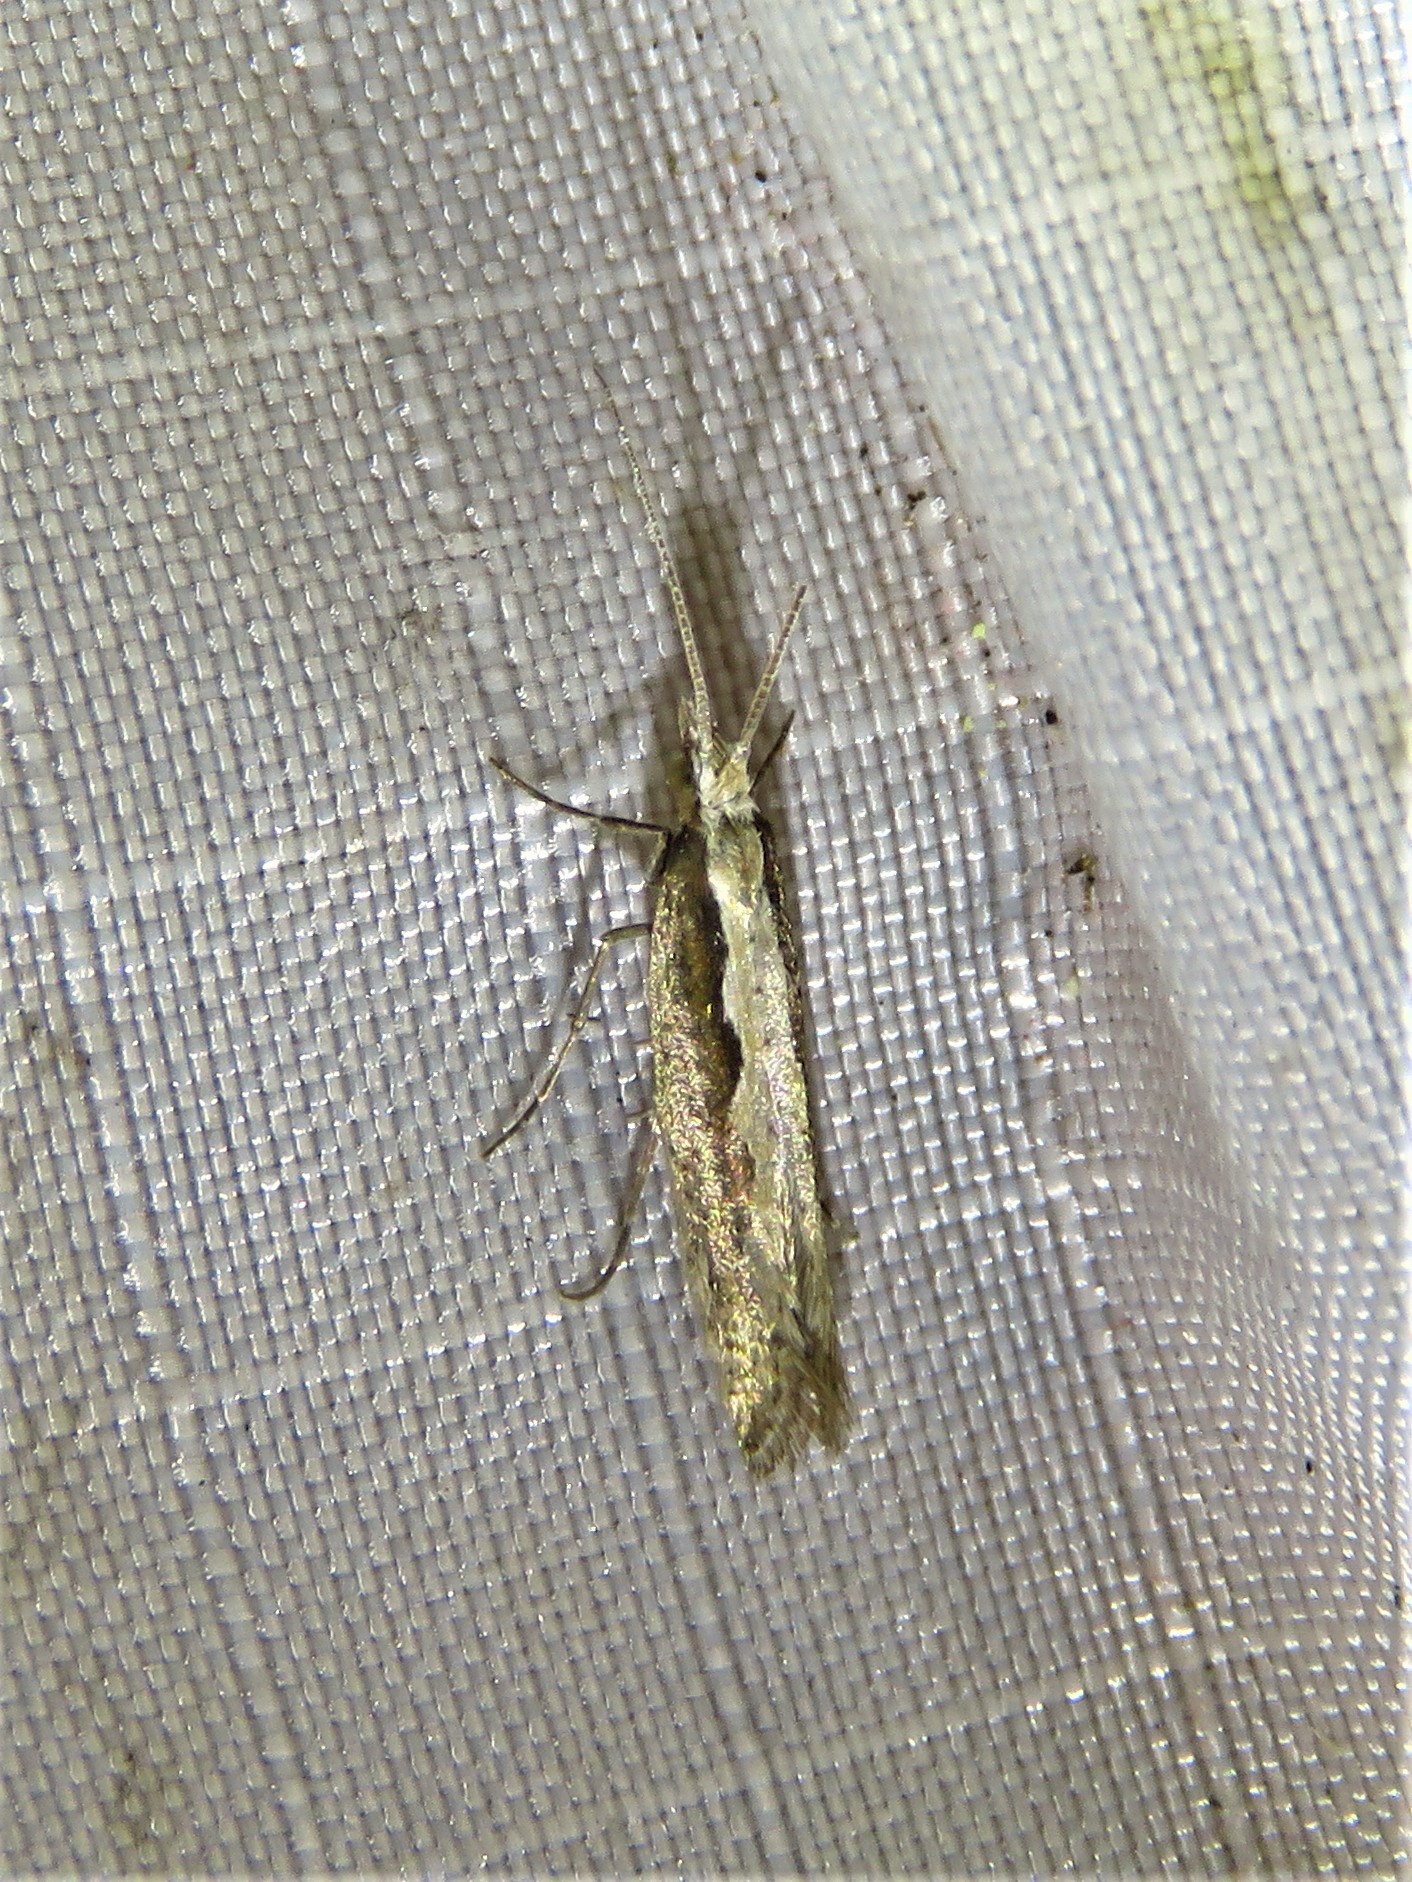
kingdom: Animalia
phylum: Arthropoda
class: Insecta
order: Lepidoptera
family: Plutellidae
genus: Plutella
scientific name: Plutella xylostella
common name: Diamond-back moth
